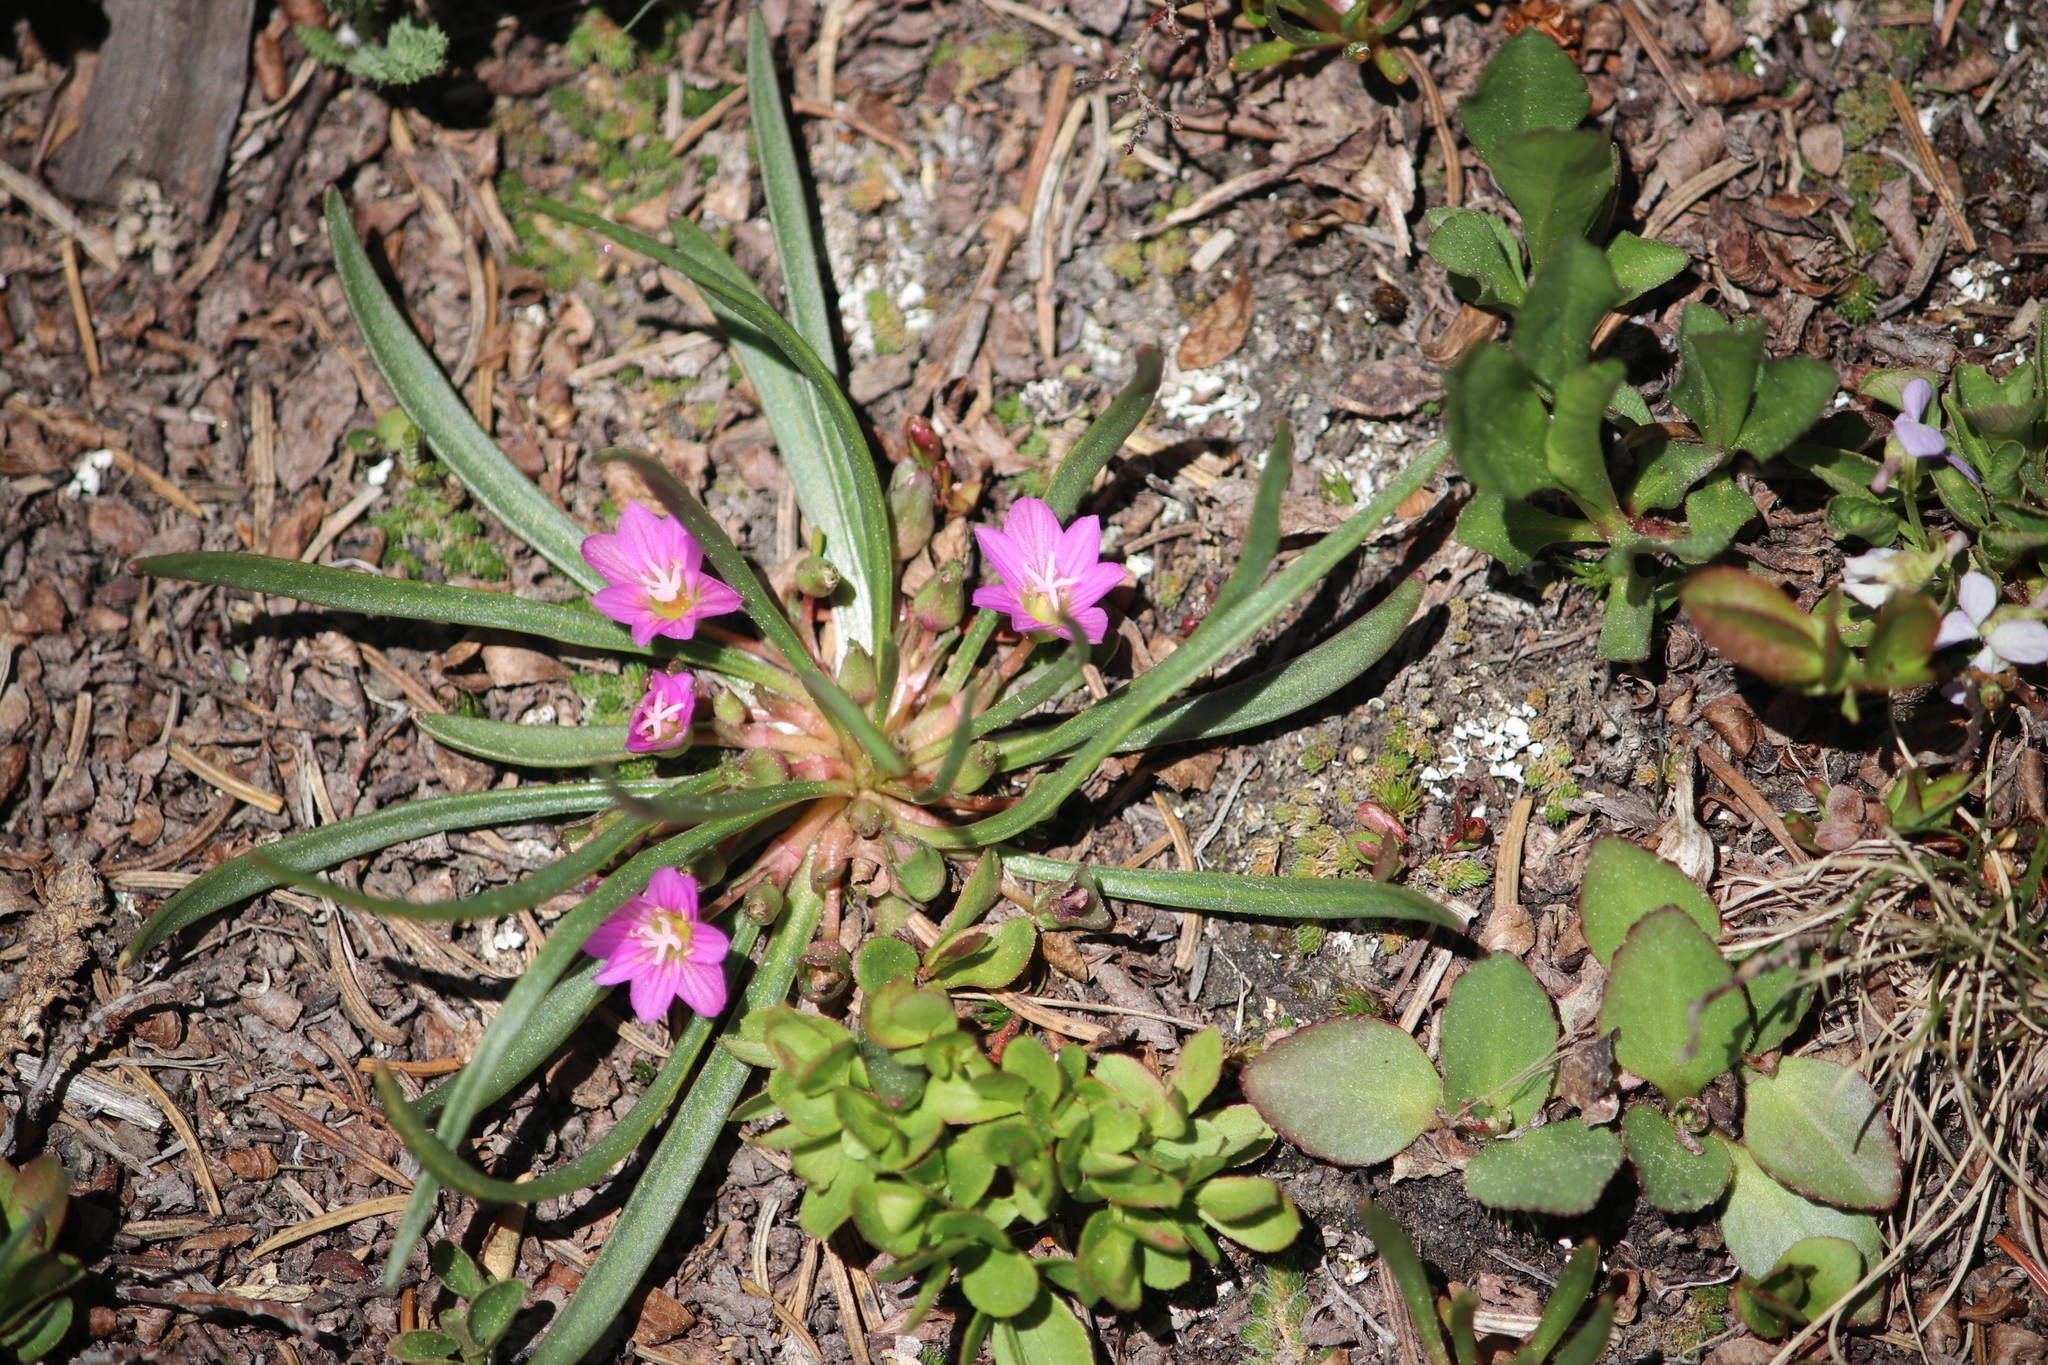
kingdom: Plantae
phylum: Tracheophyta
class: Magnoliopsida
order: Caryophyllales
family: Montiaceae
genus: Lewisia
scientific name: Lewisia pygmaea
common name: Alpine bitterroot
